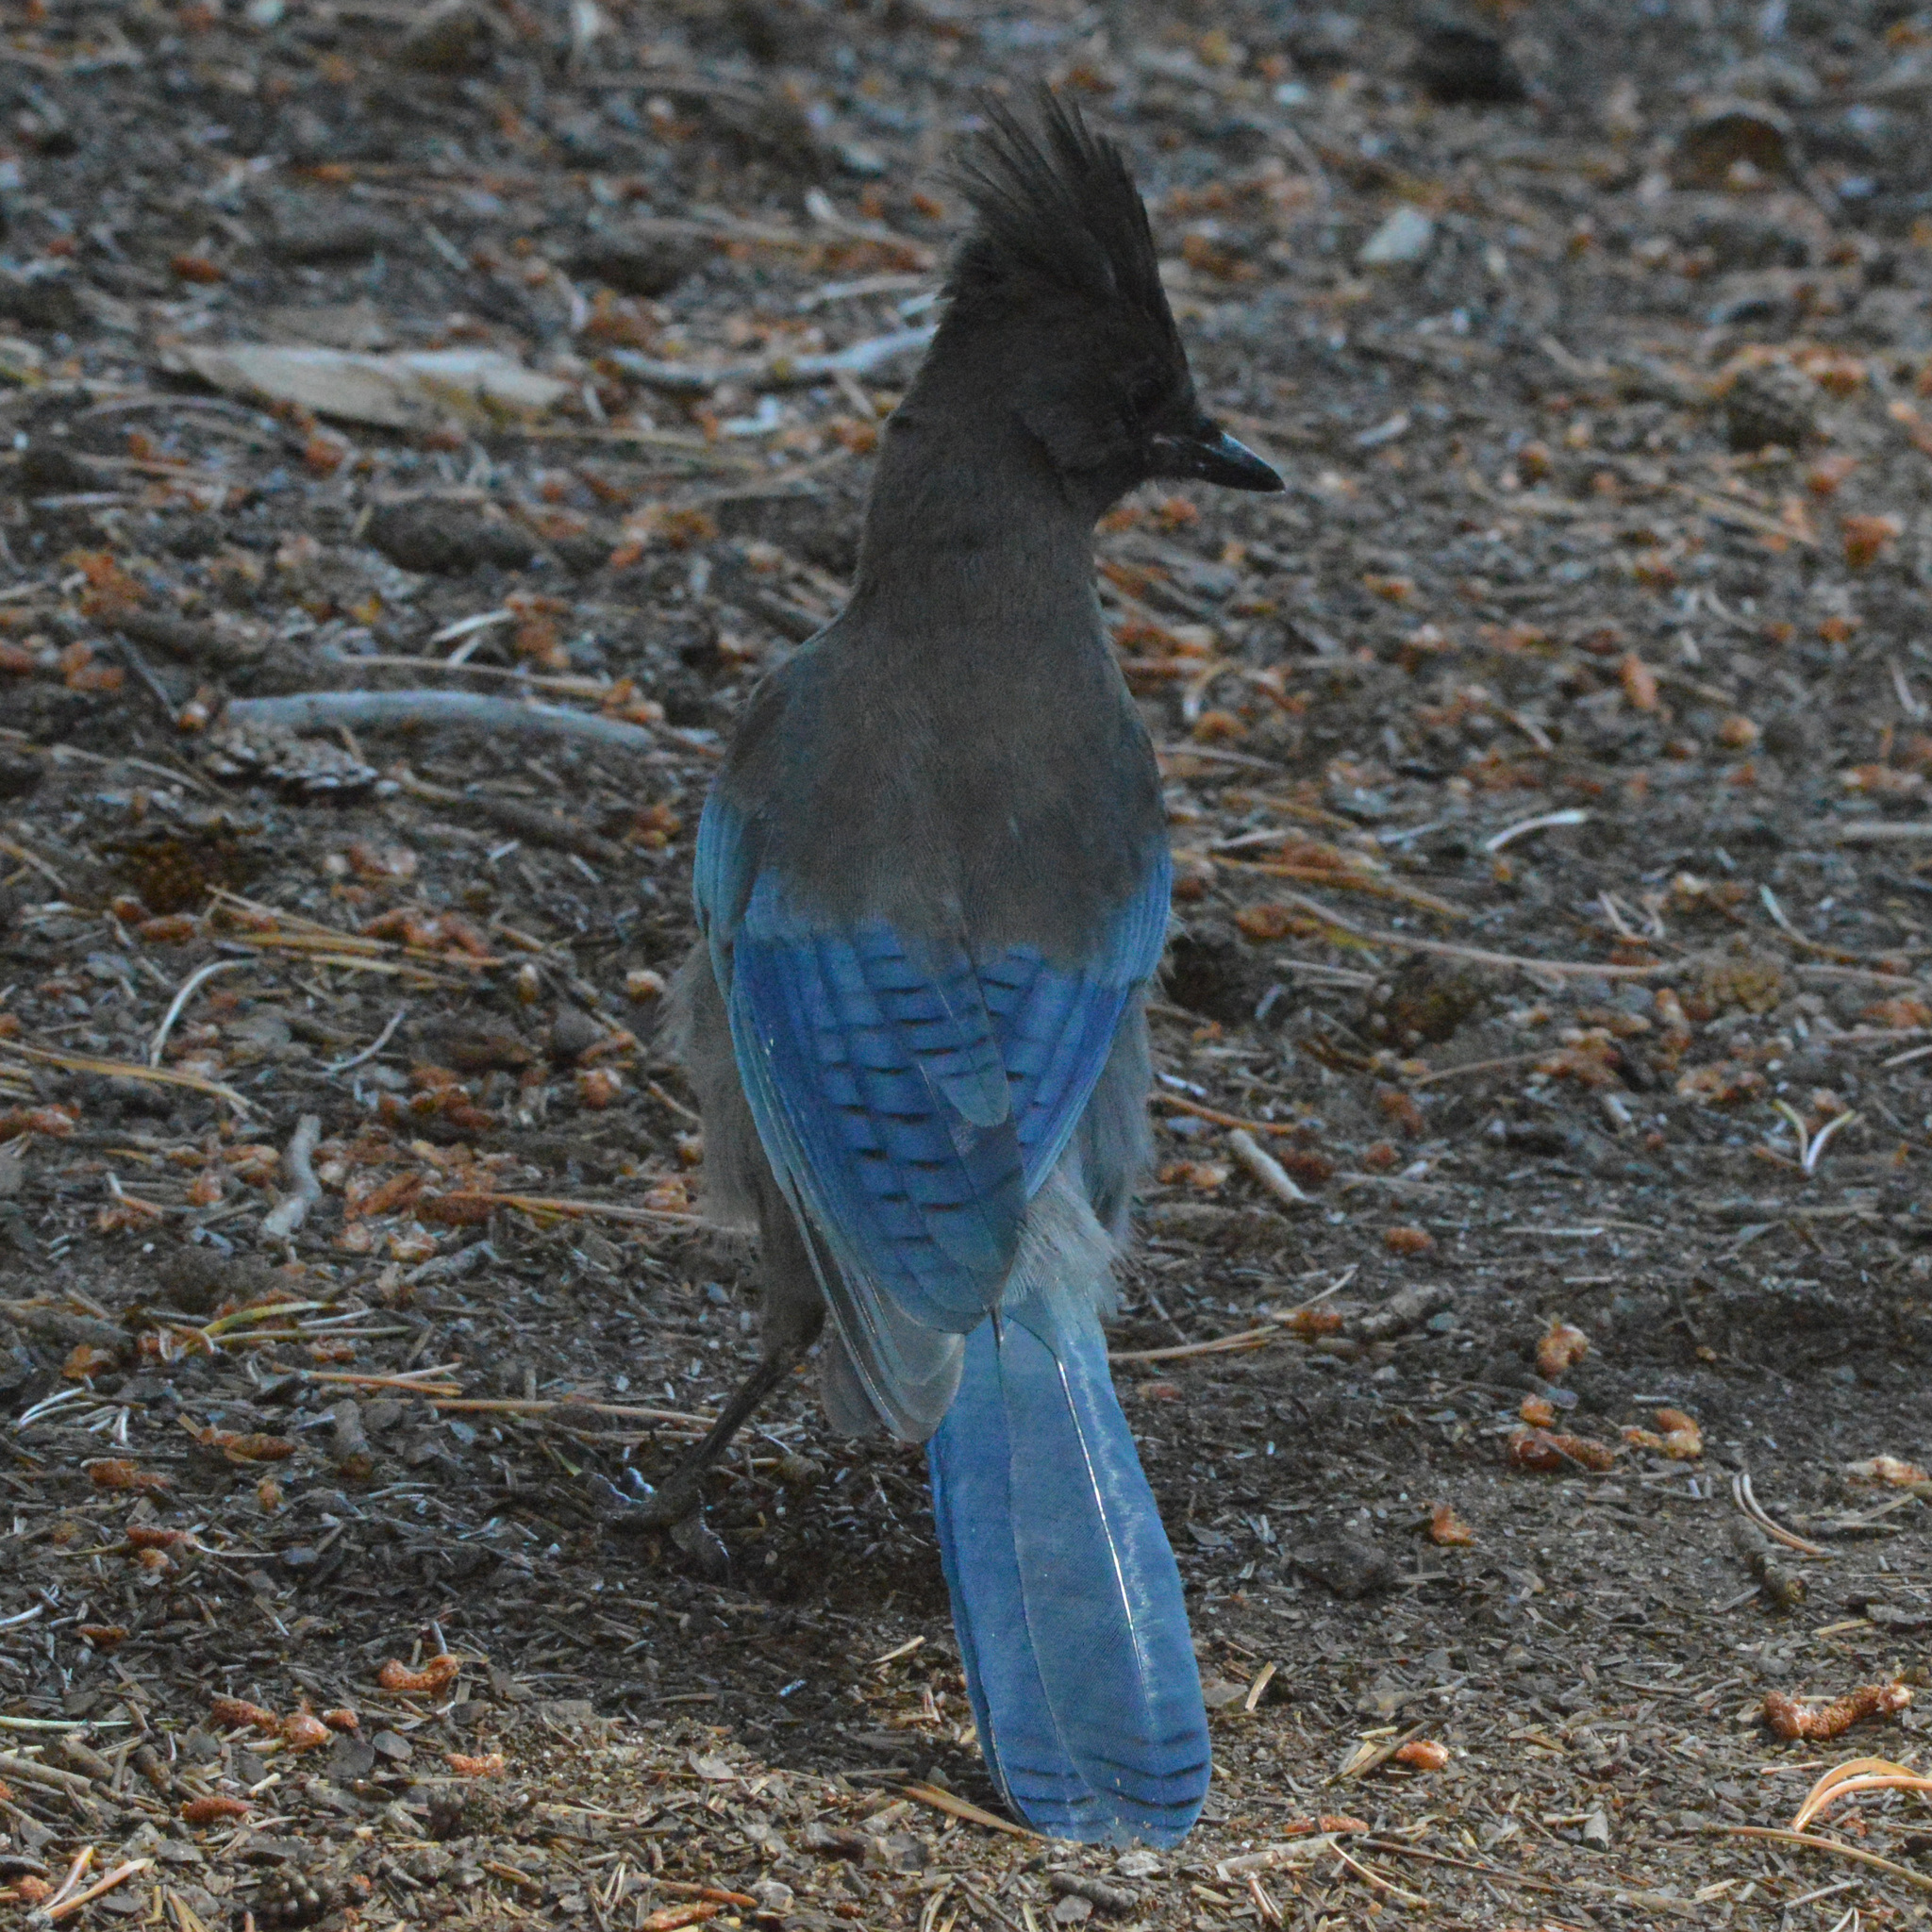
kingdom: Animalia
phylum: Chordata
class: Aves
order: Passeriformes
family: Corvidae
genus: Cyanocitta
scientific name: Cyanocitta stelleri
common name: Steller's jay
